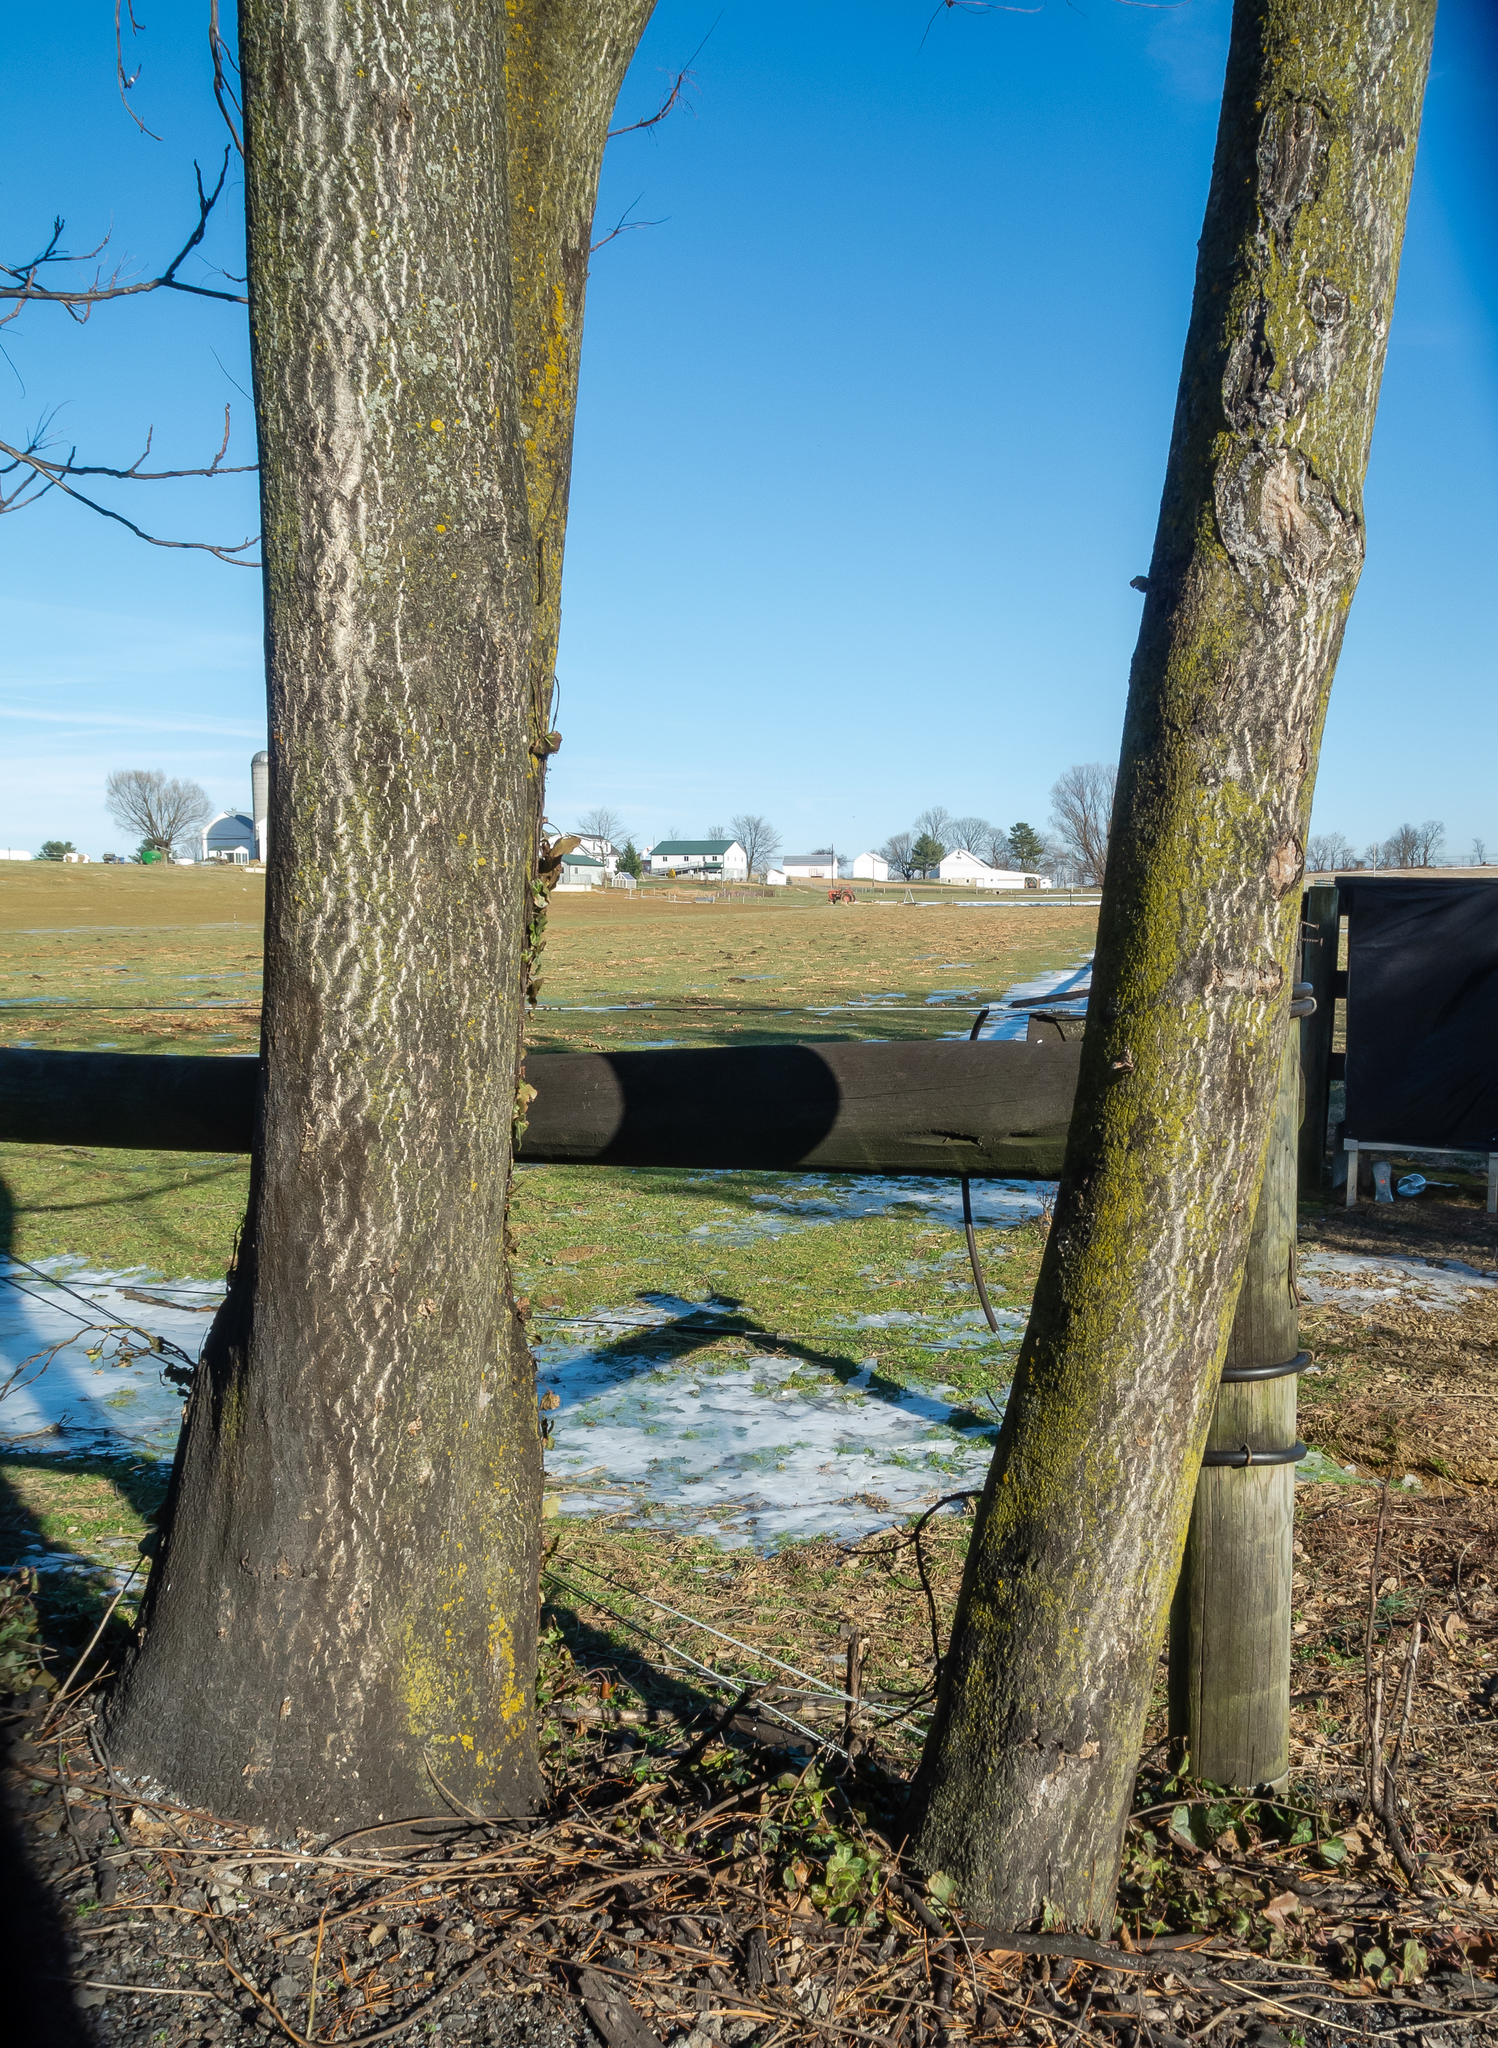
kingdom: Plantae
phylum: Tracheophyta
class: Magnoliopsida
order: Sapindales
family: Simaroubaceae
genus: Ailanthus
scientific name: Ailanthus altissima
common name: Tree-of-heaven
